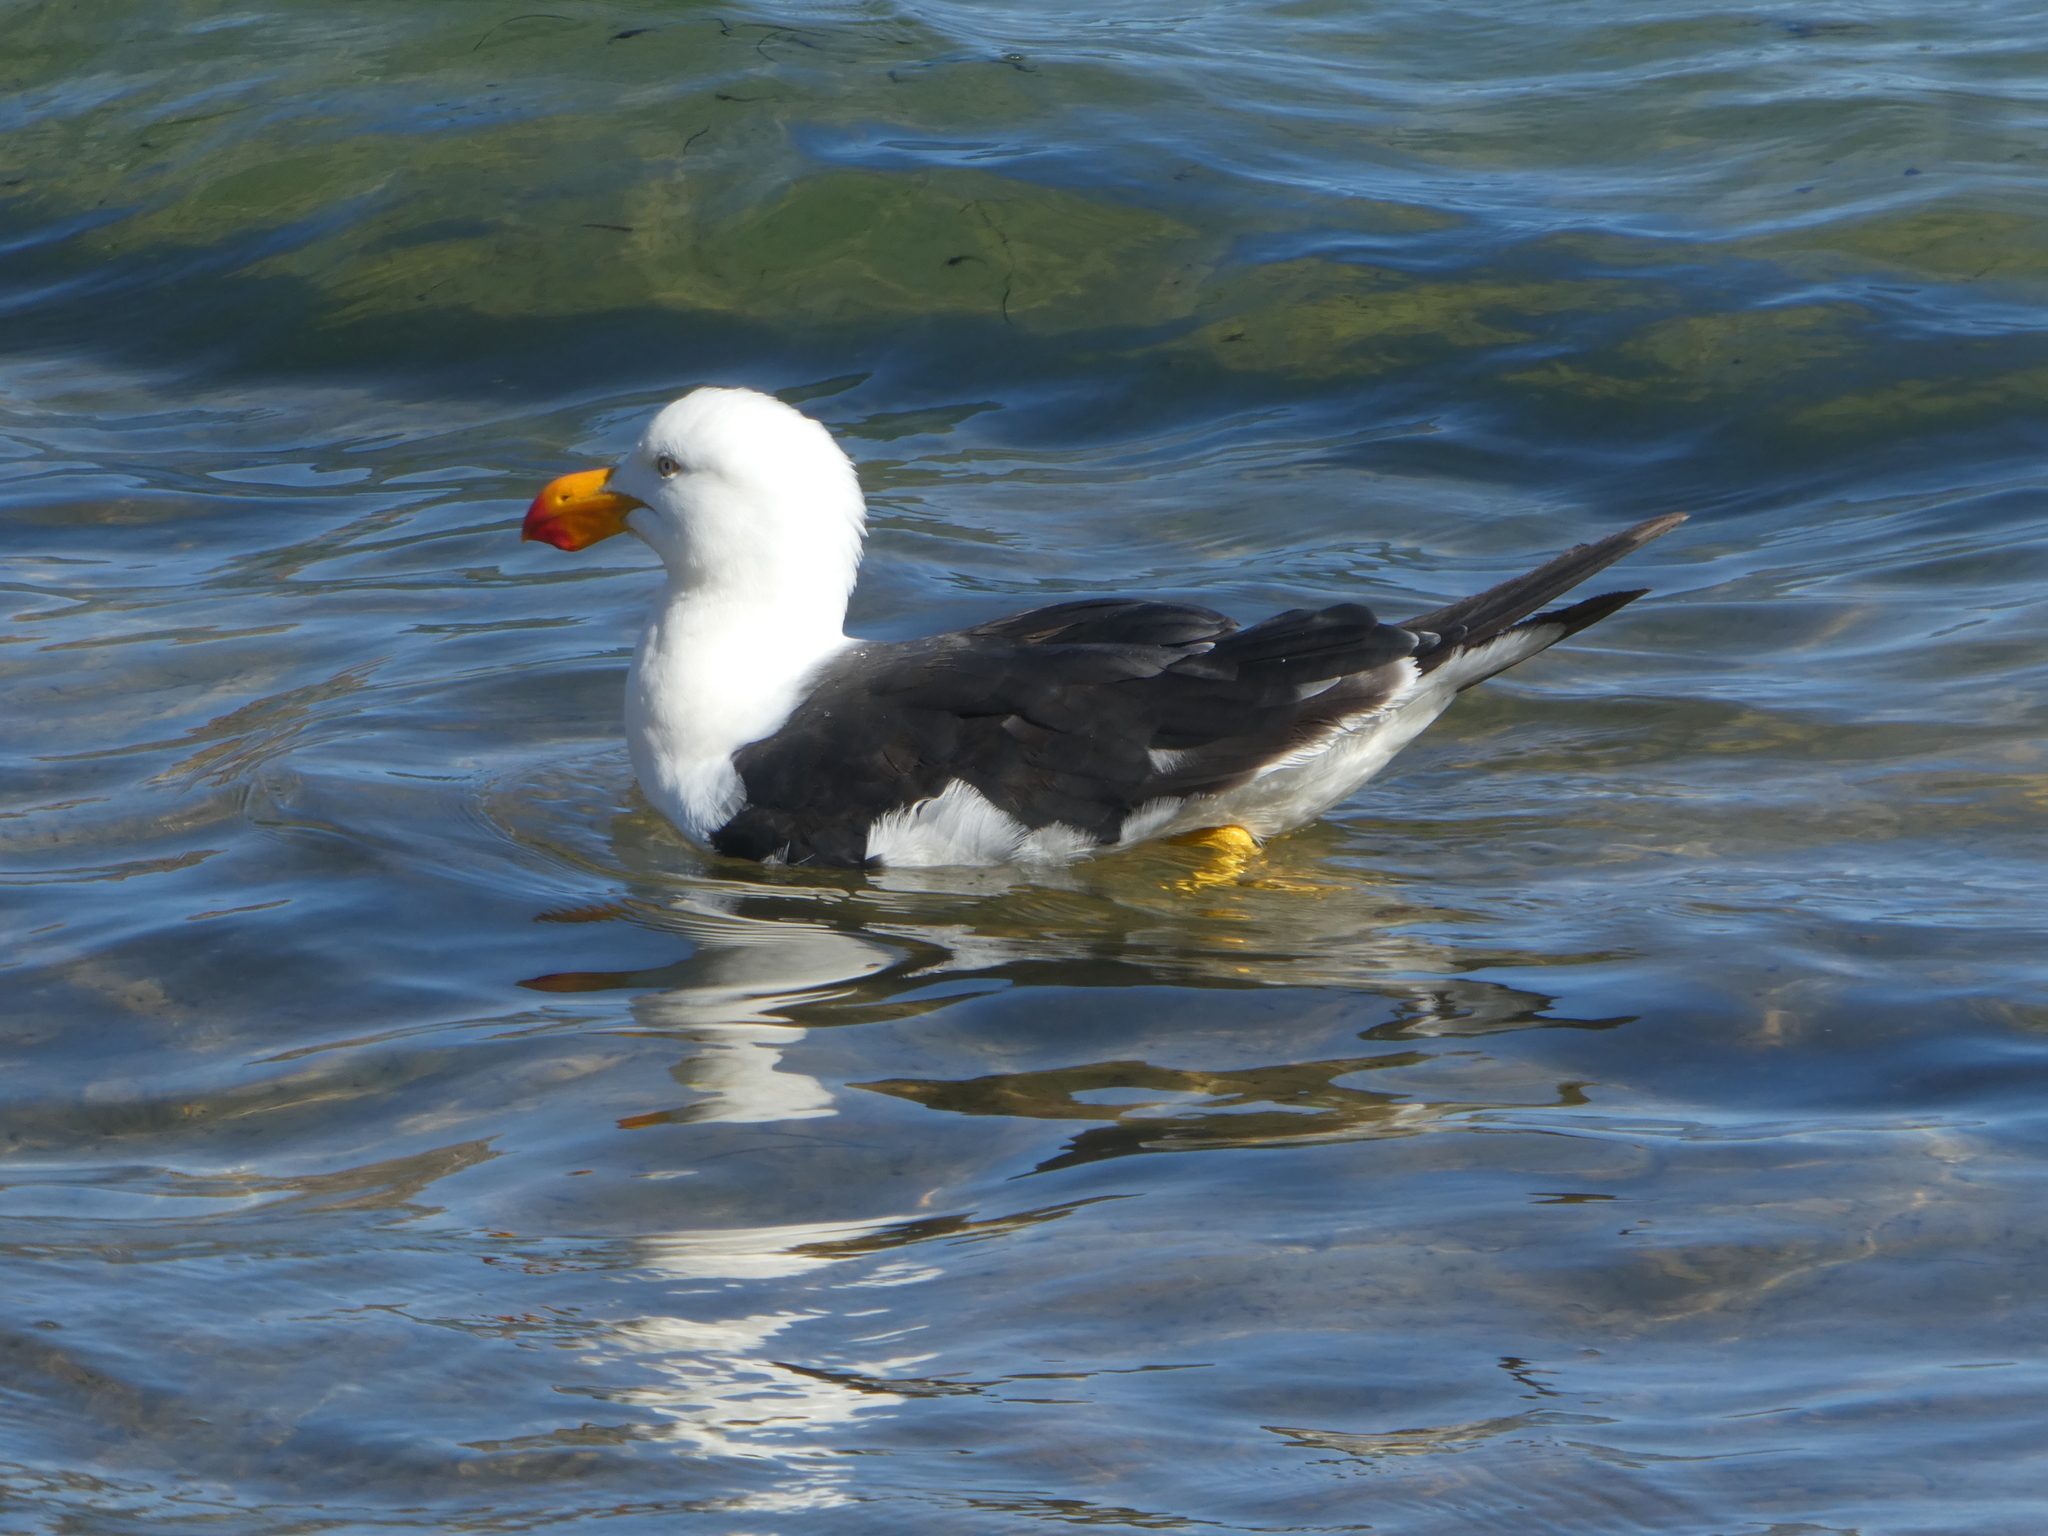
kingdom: Animalia
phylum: Chordata
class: Aves
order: Charadriiformes
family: Laridae
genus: Larus
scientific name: Larus pacificus
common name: Pacific gull
